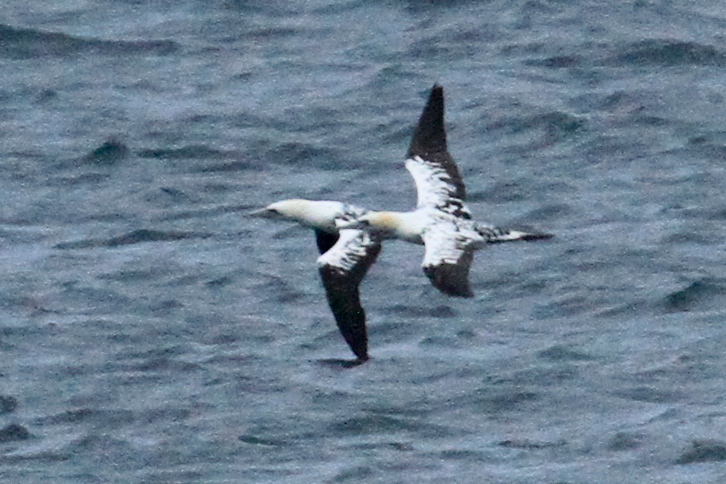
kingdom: Animalia
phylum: Chordata
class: Aves
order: Suliformes
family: Sulidae
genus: Morus
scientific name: Morus bassanus
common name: Northern gannet
